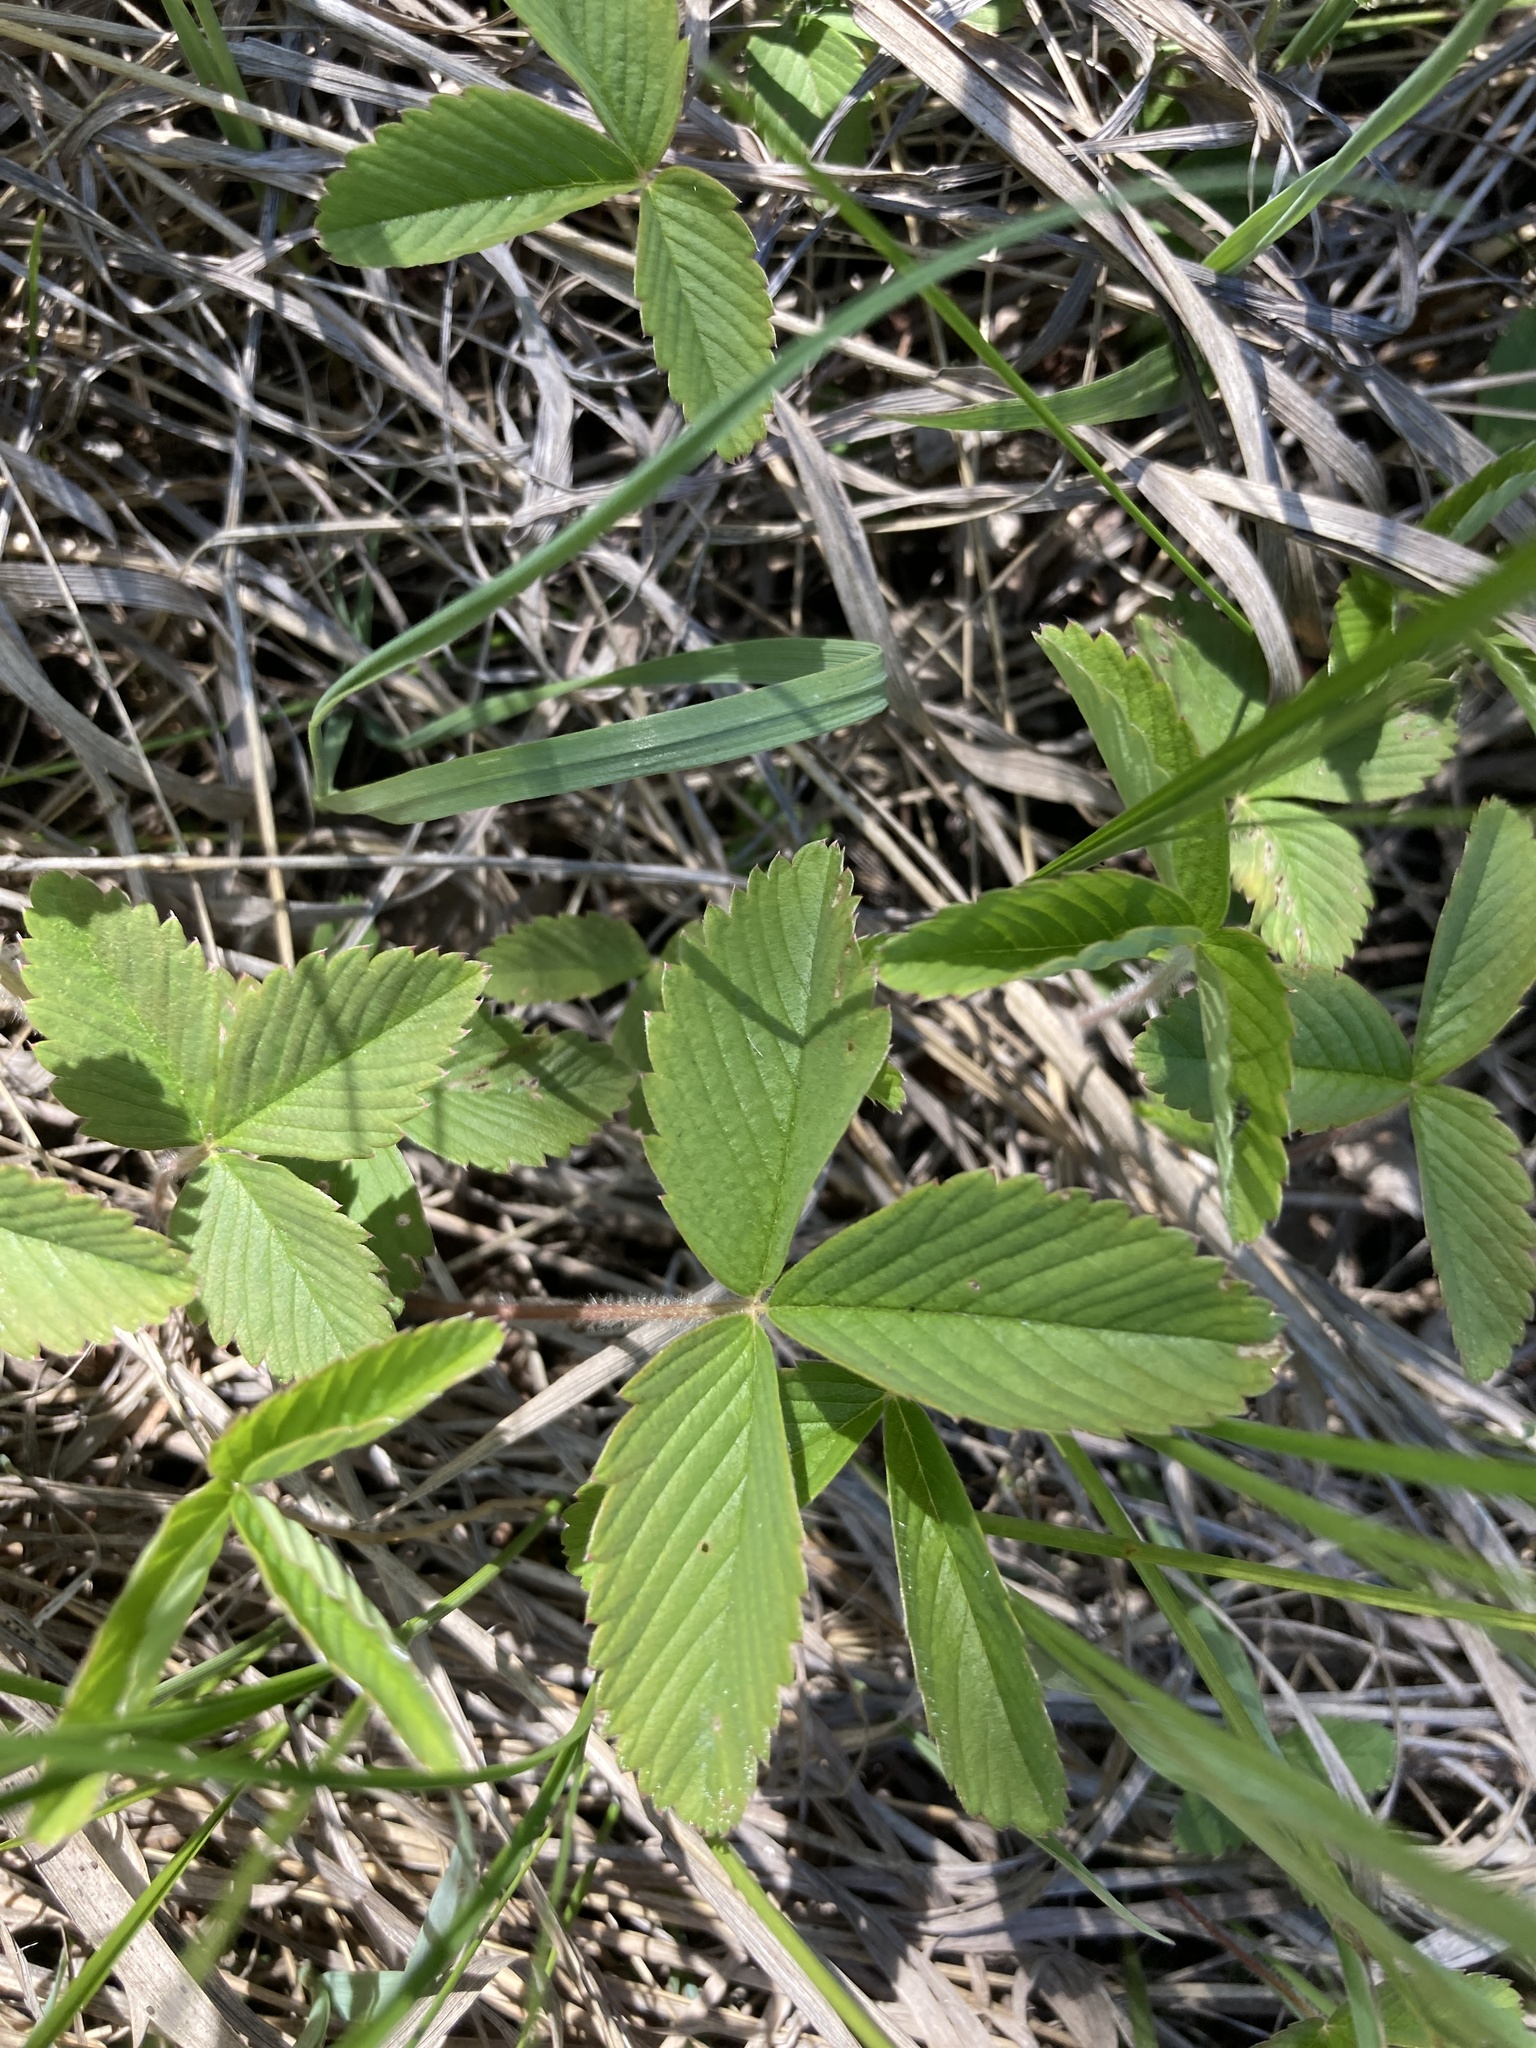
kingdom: Plantae
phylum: Tracheophyta
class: Magnoliopsida
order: Rosales
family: Rosaceae
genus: Fragaria
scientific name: Fragaria viridis
